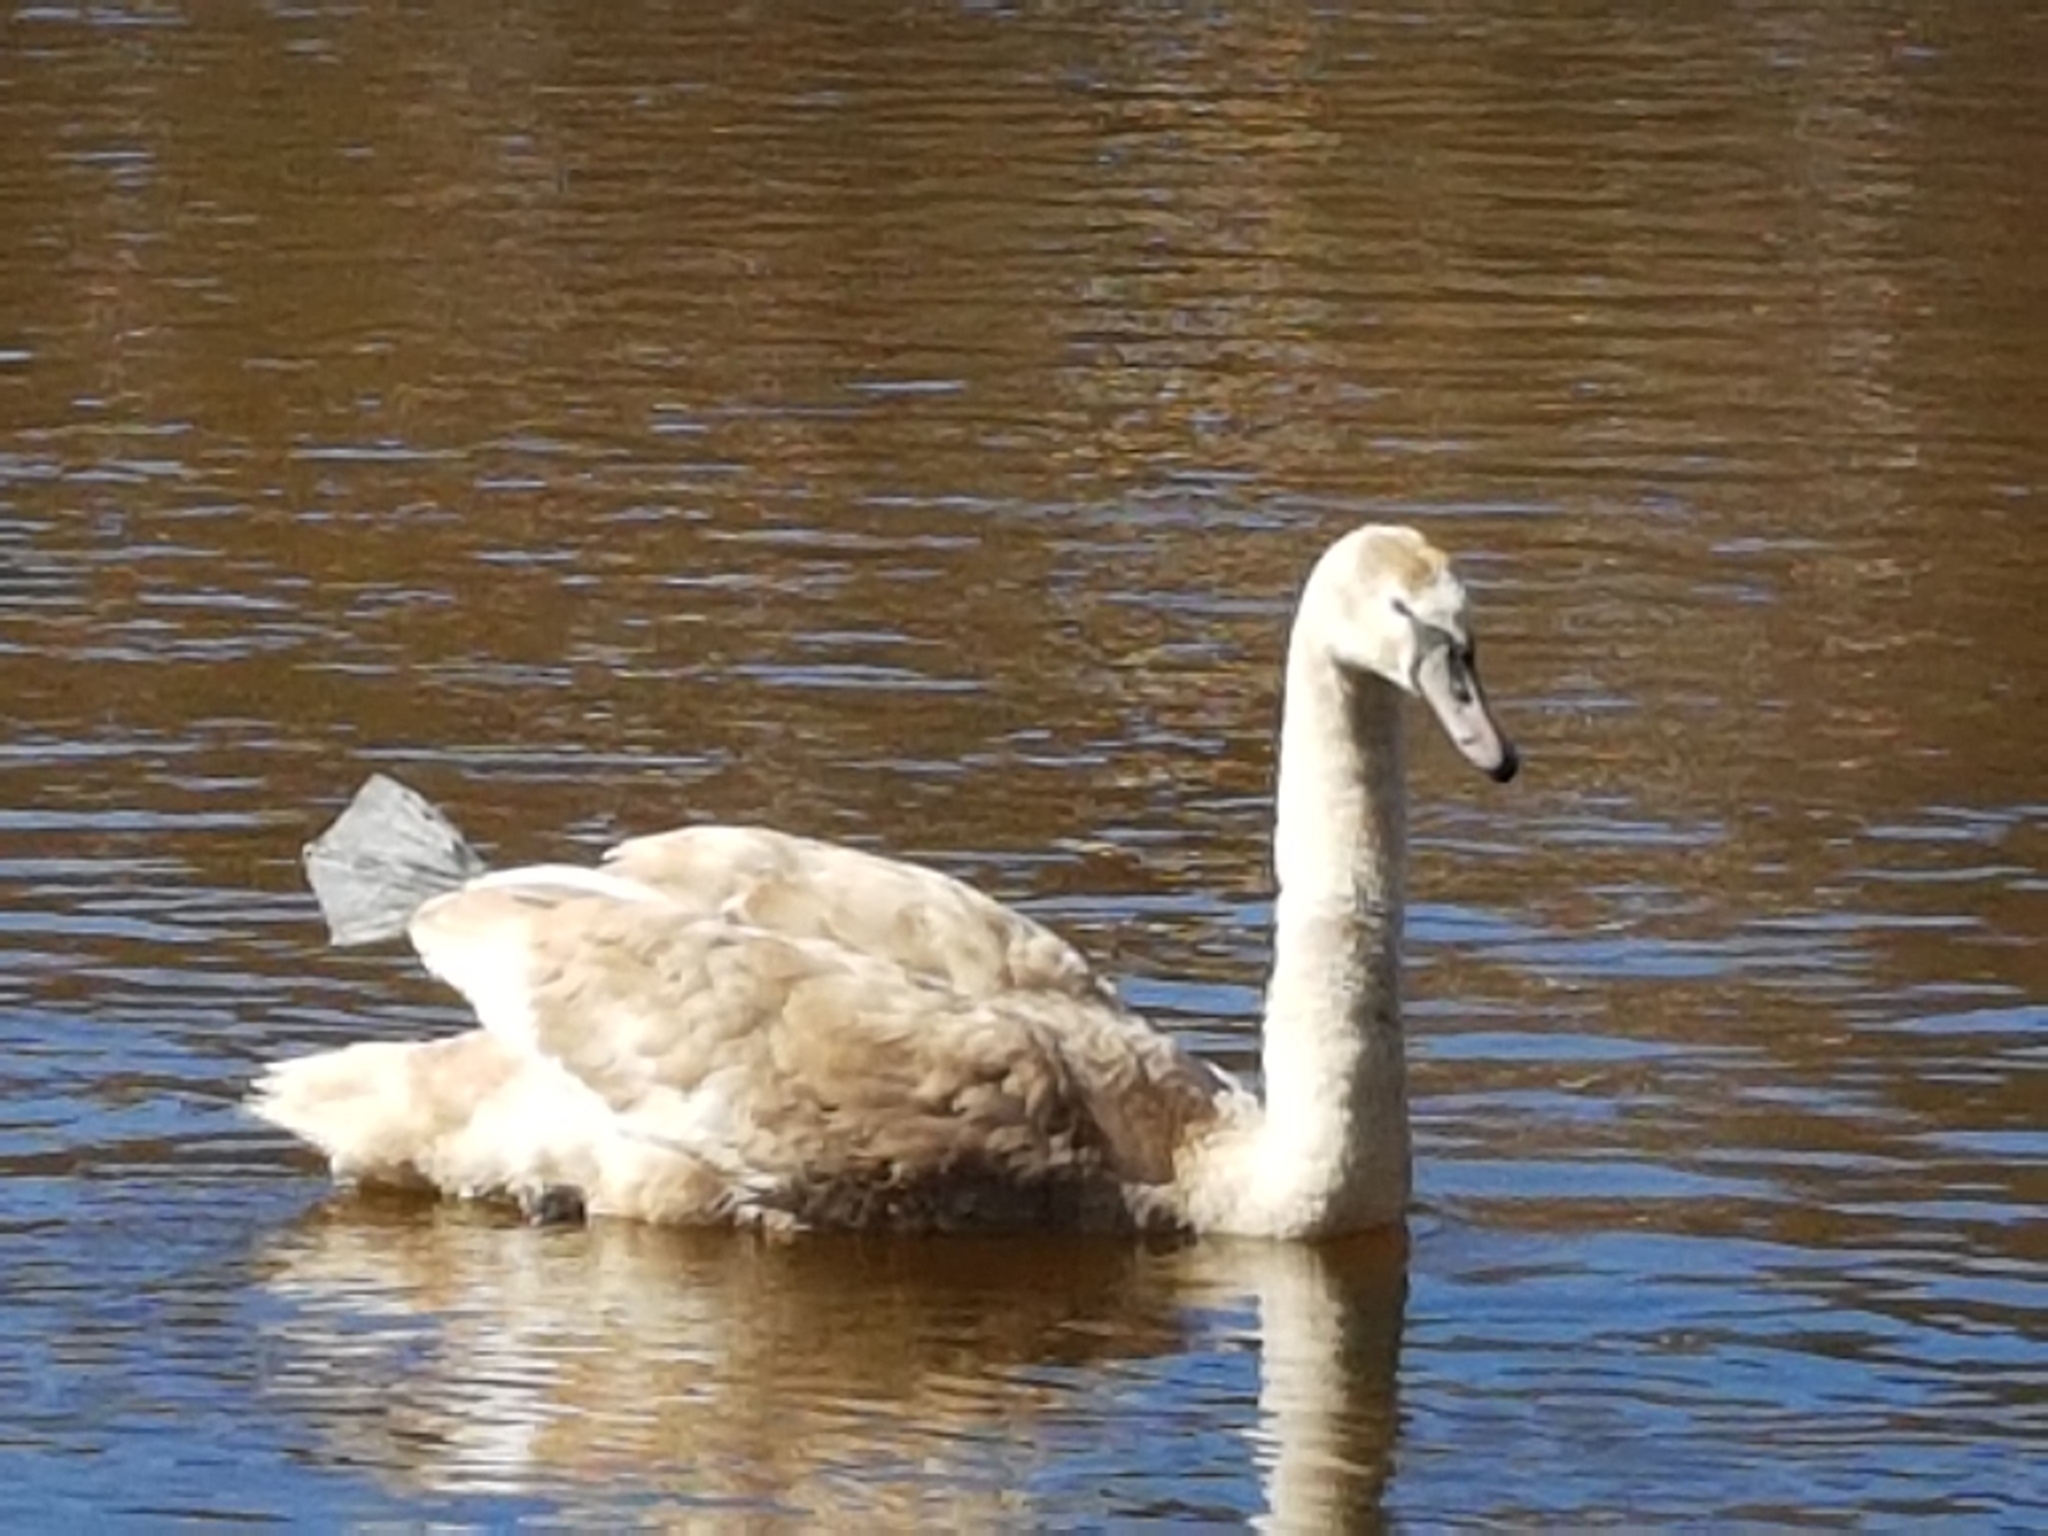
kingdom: Animalia
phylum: Chordata
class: Aves
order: Anseriformes
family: Anatidae
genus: Cygnus
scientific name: Cygnus olor
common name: Mute swan
